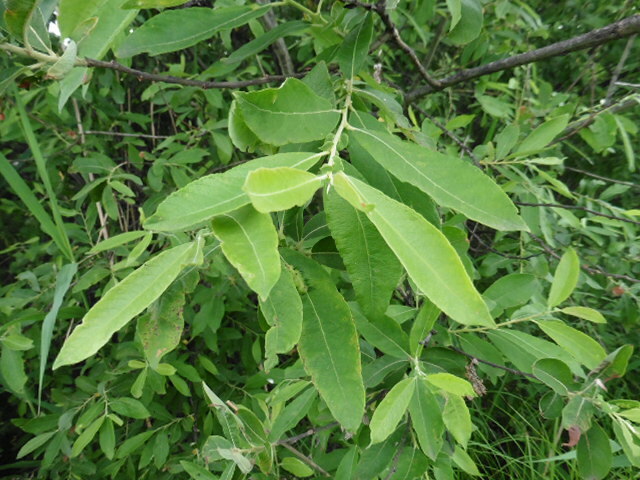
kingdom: Plantae
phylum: Tracheophyta
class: Magnoliopsida
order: Malpighiales
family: Salicaceae
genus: Salix
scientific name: Salix cinerea
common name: Common sallow
